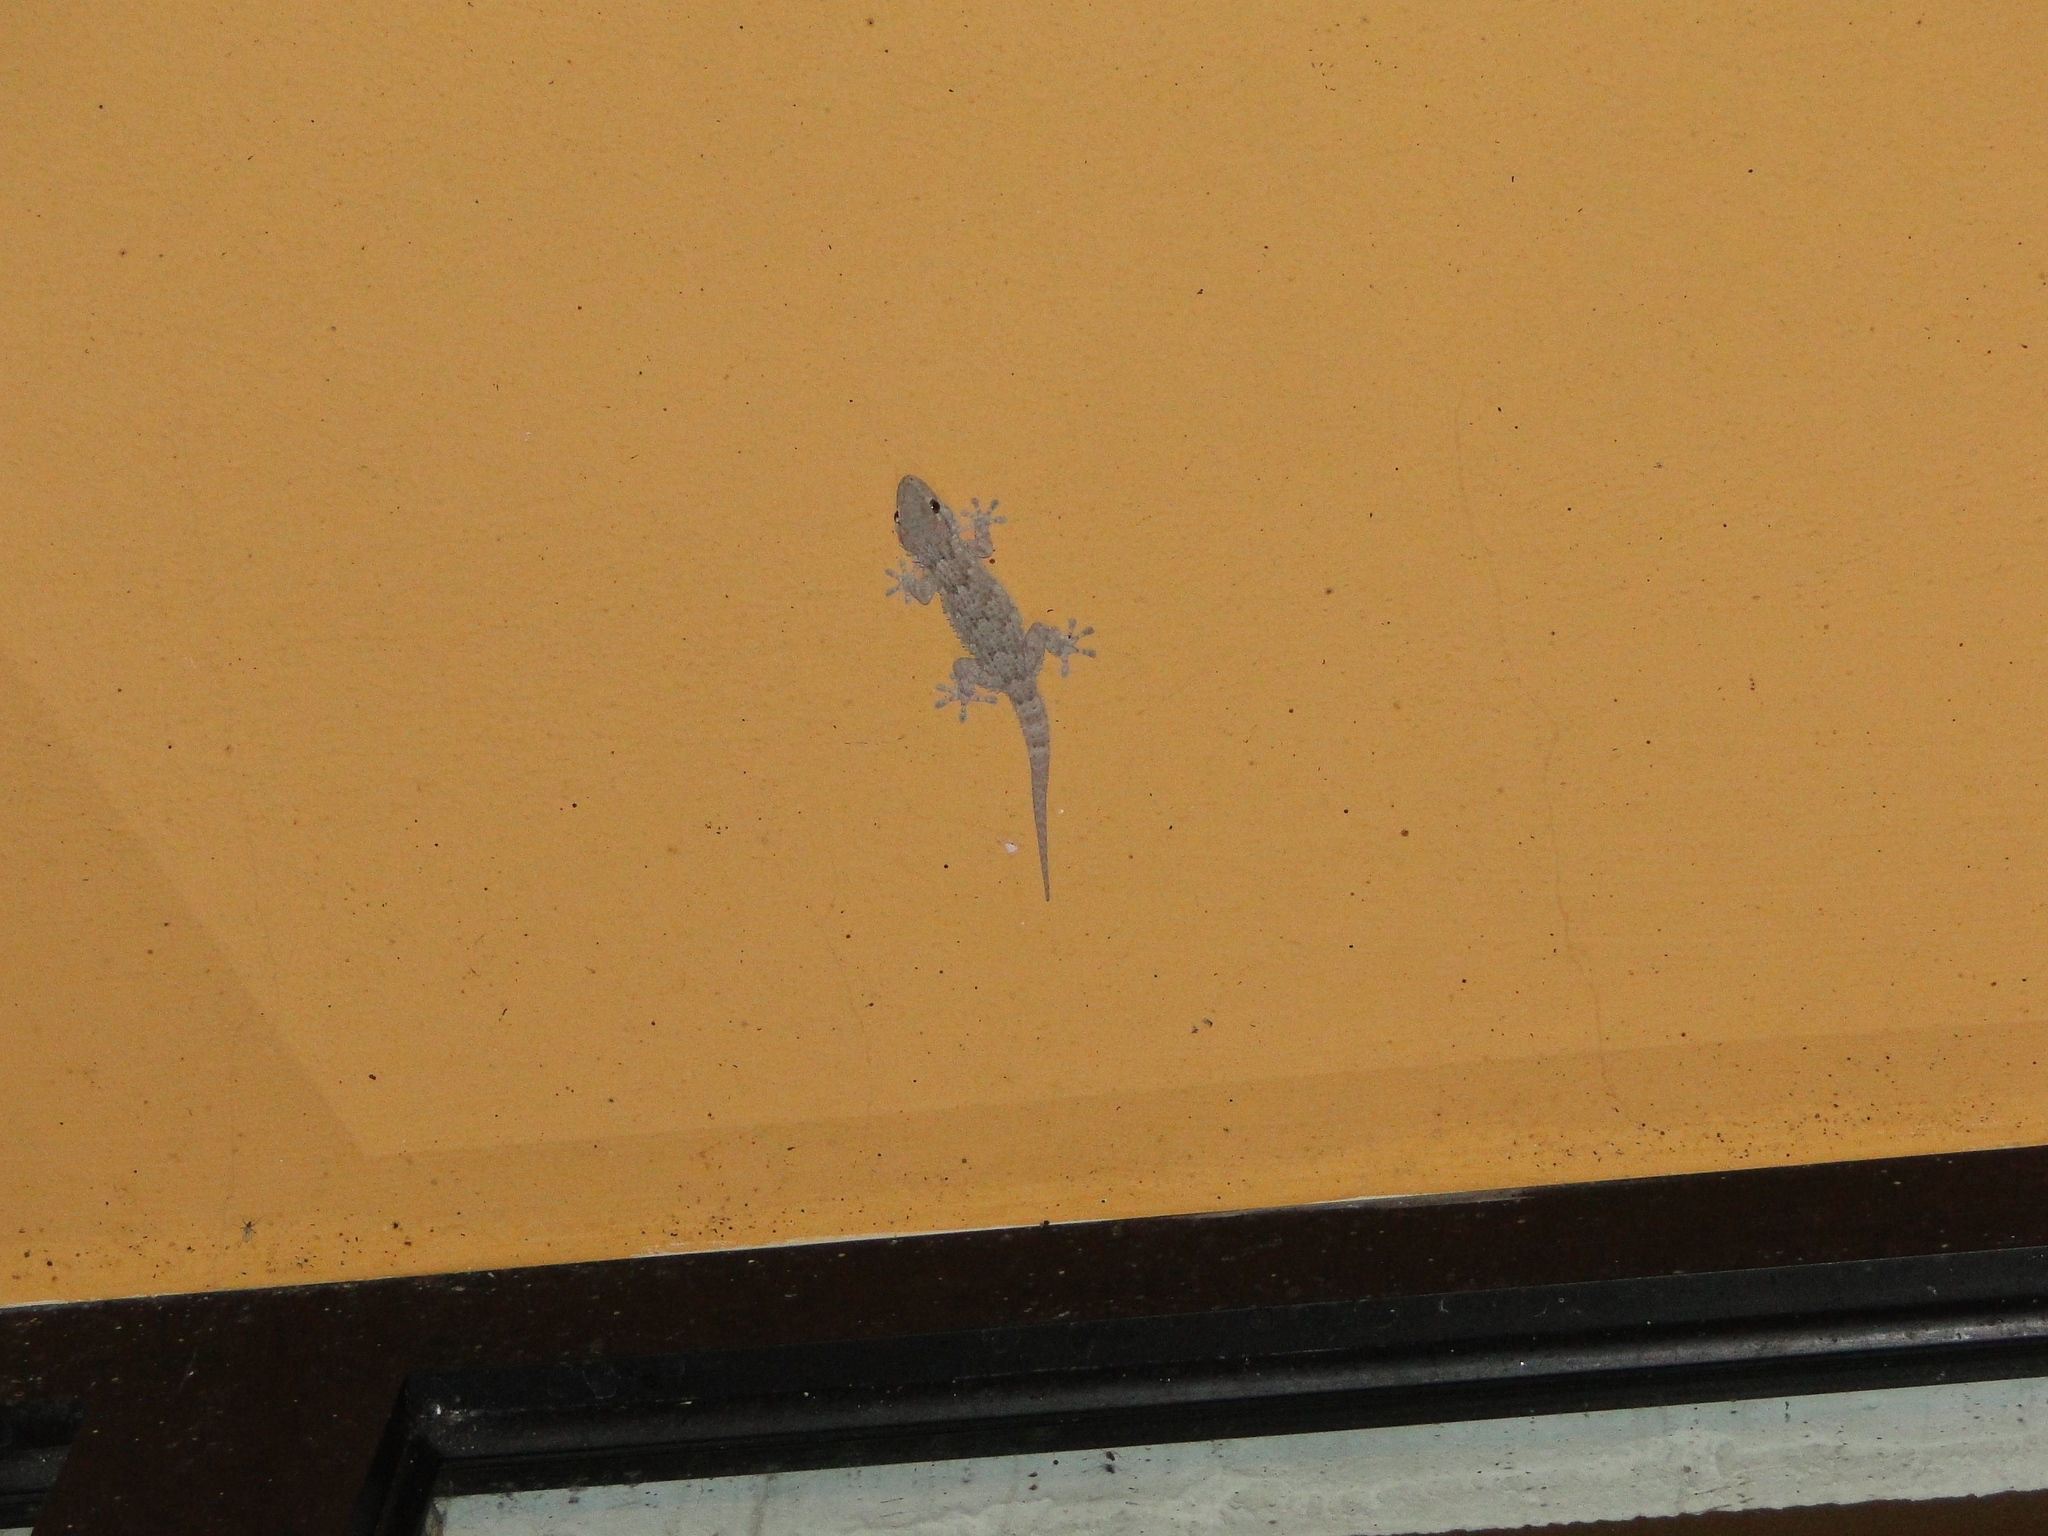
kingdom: Animalia
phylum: Chordata
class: Squamata
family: Phyllodactylidae
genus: Tarentola
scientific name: Tarentola mauritanica
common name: Moorish gecko
